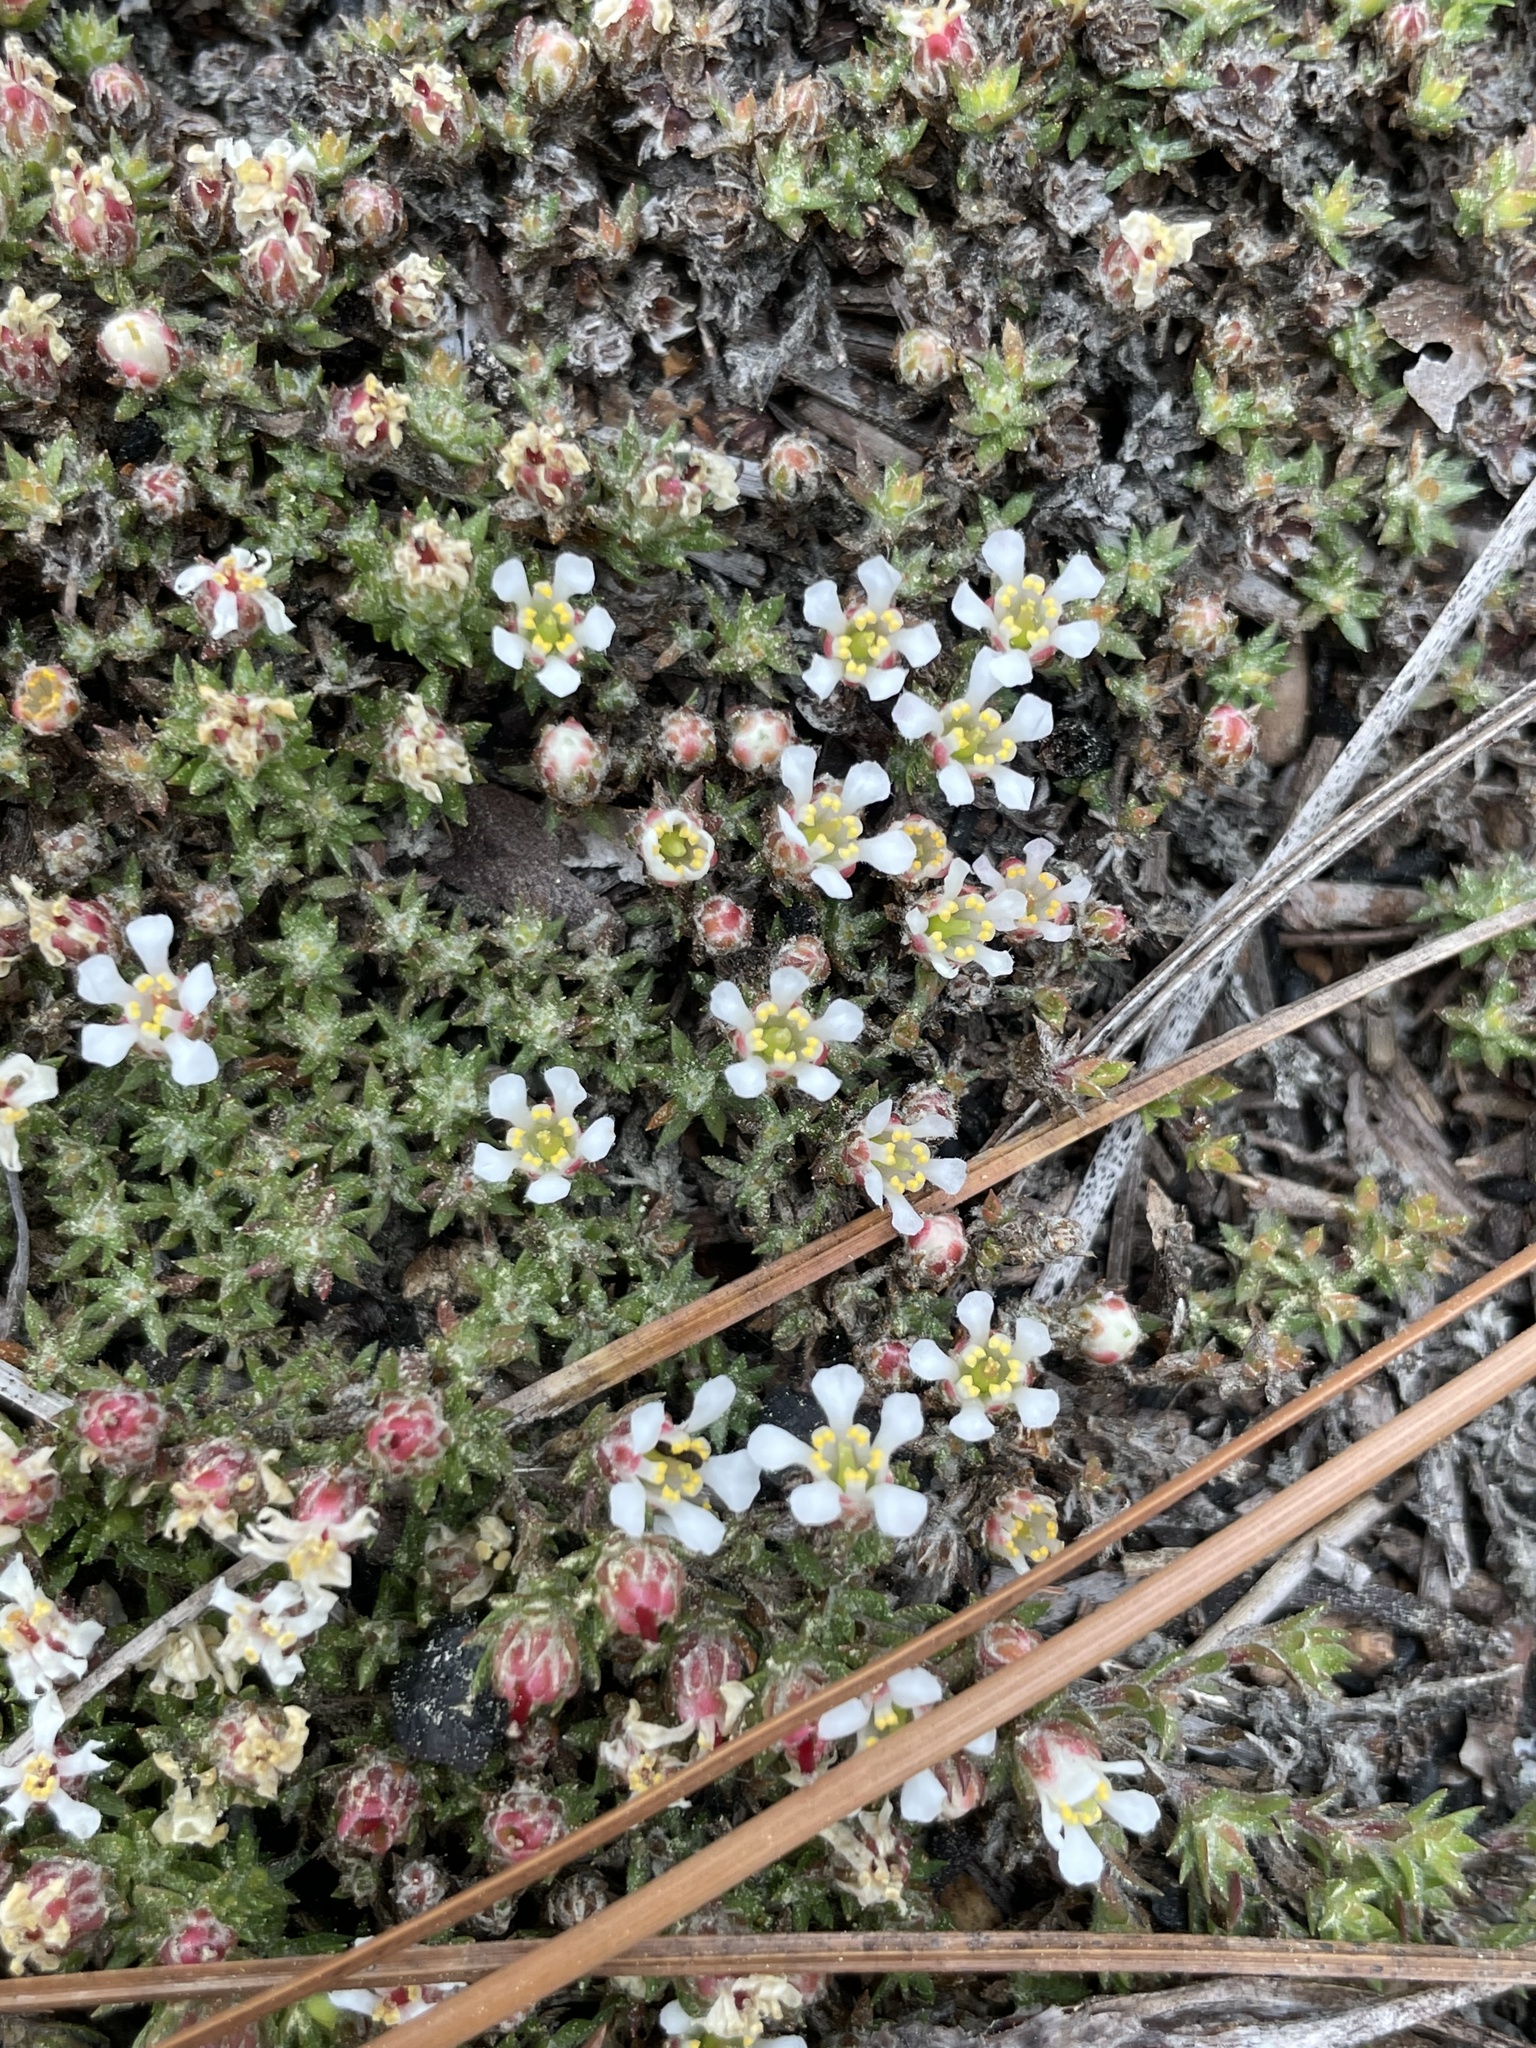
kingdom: Plantae
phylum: Tracheophyta
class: Magnoliopsida
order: Ericales
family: Diapensiaceae
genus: Pyxidanthera
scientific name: Pyxidanthera brevifolia
